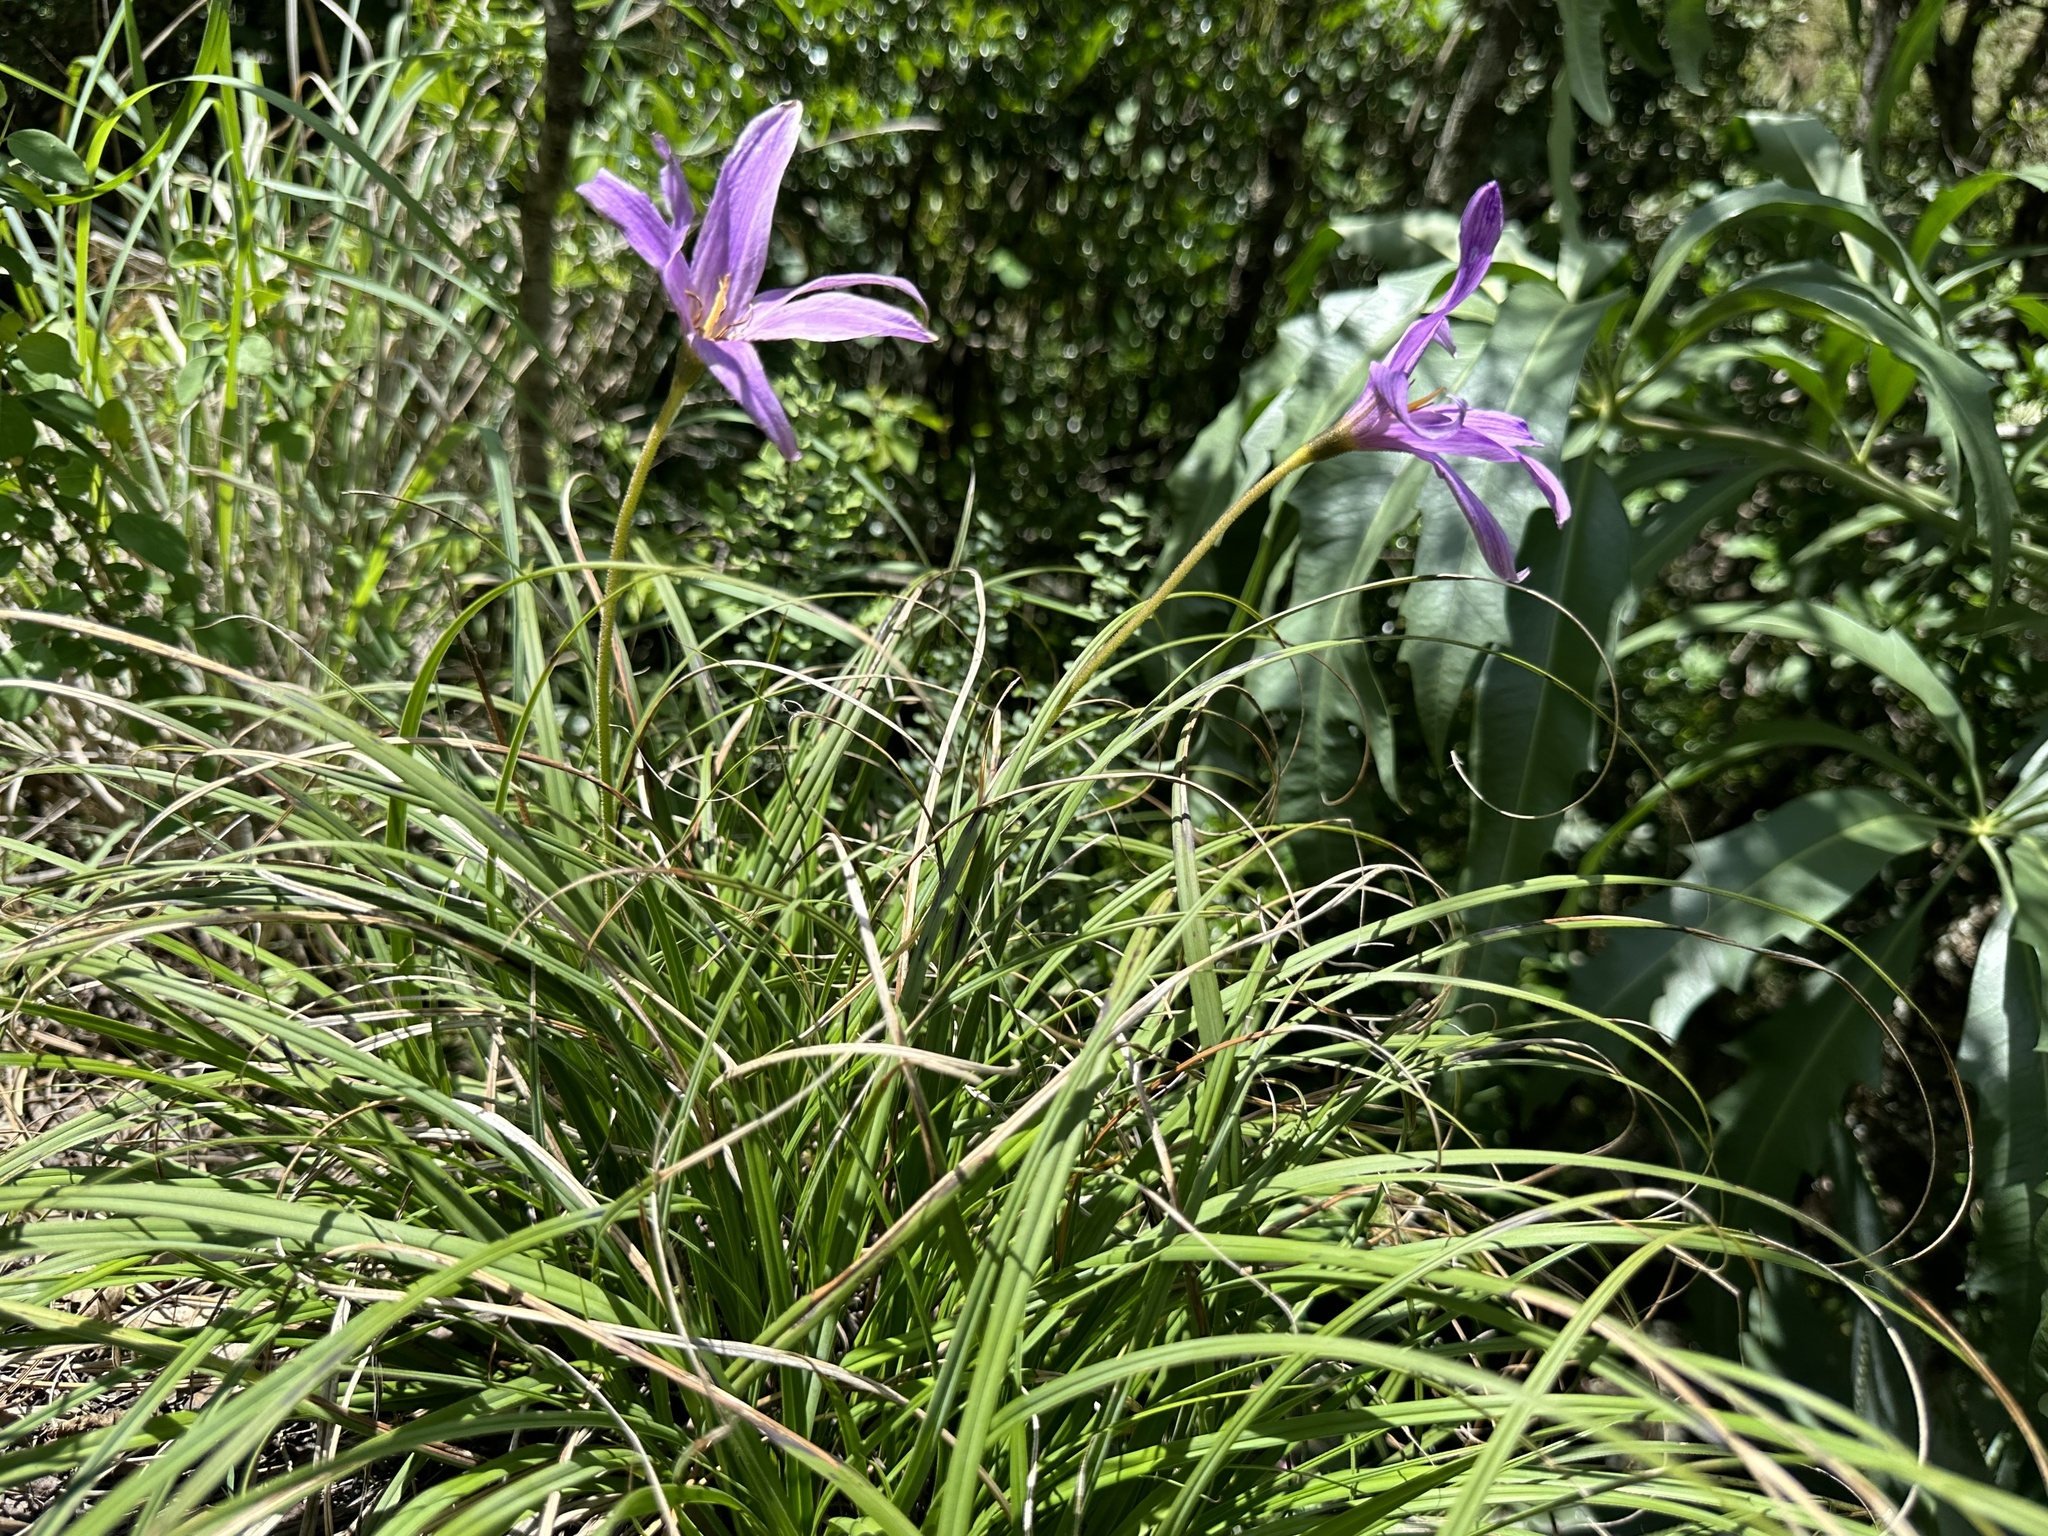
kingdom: Plantae
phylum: Tracheophyta
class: Liliopsida
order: Pandanales
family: Velloziaceae
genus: Xerophyta
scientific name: Xerophyta viscosa
